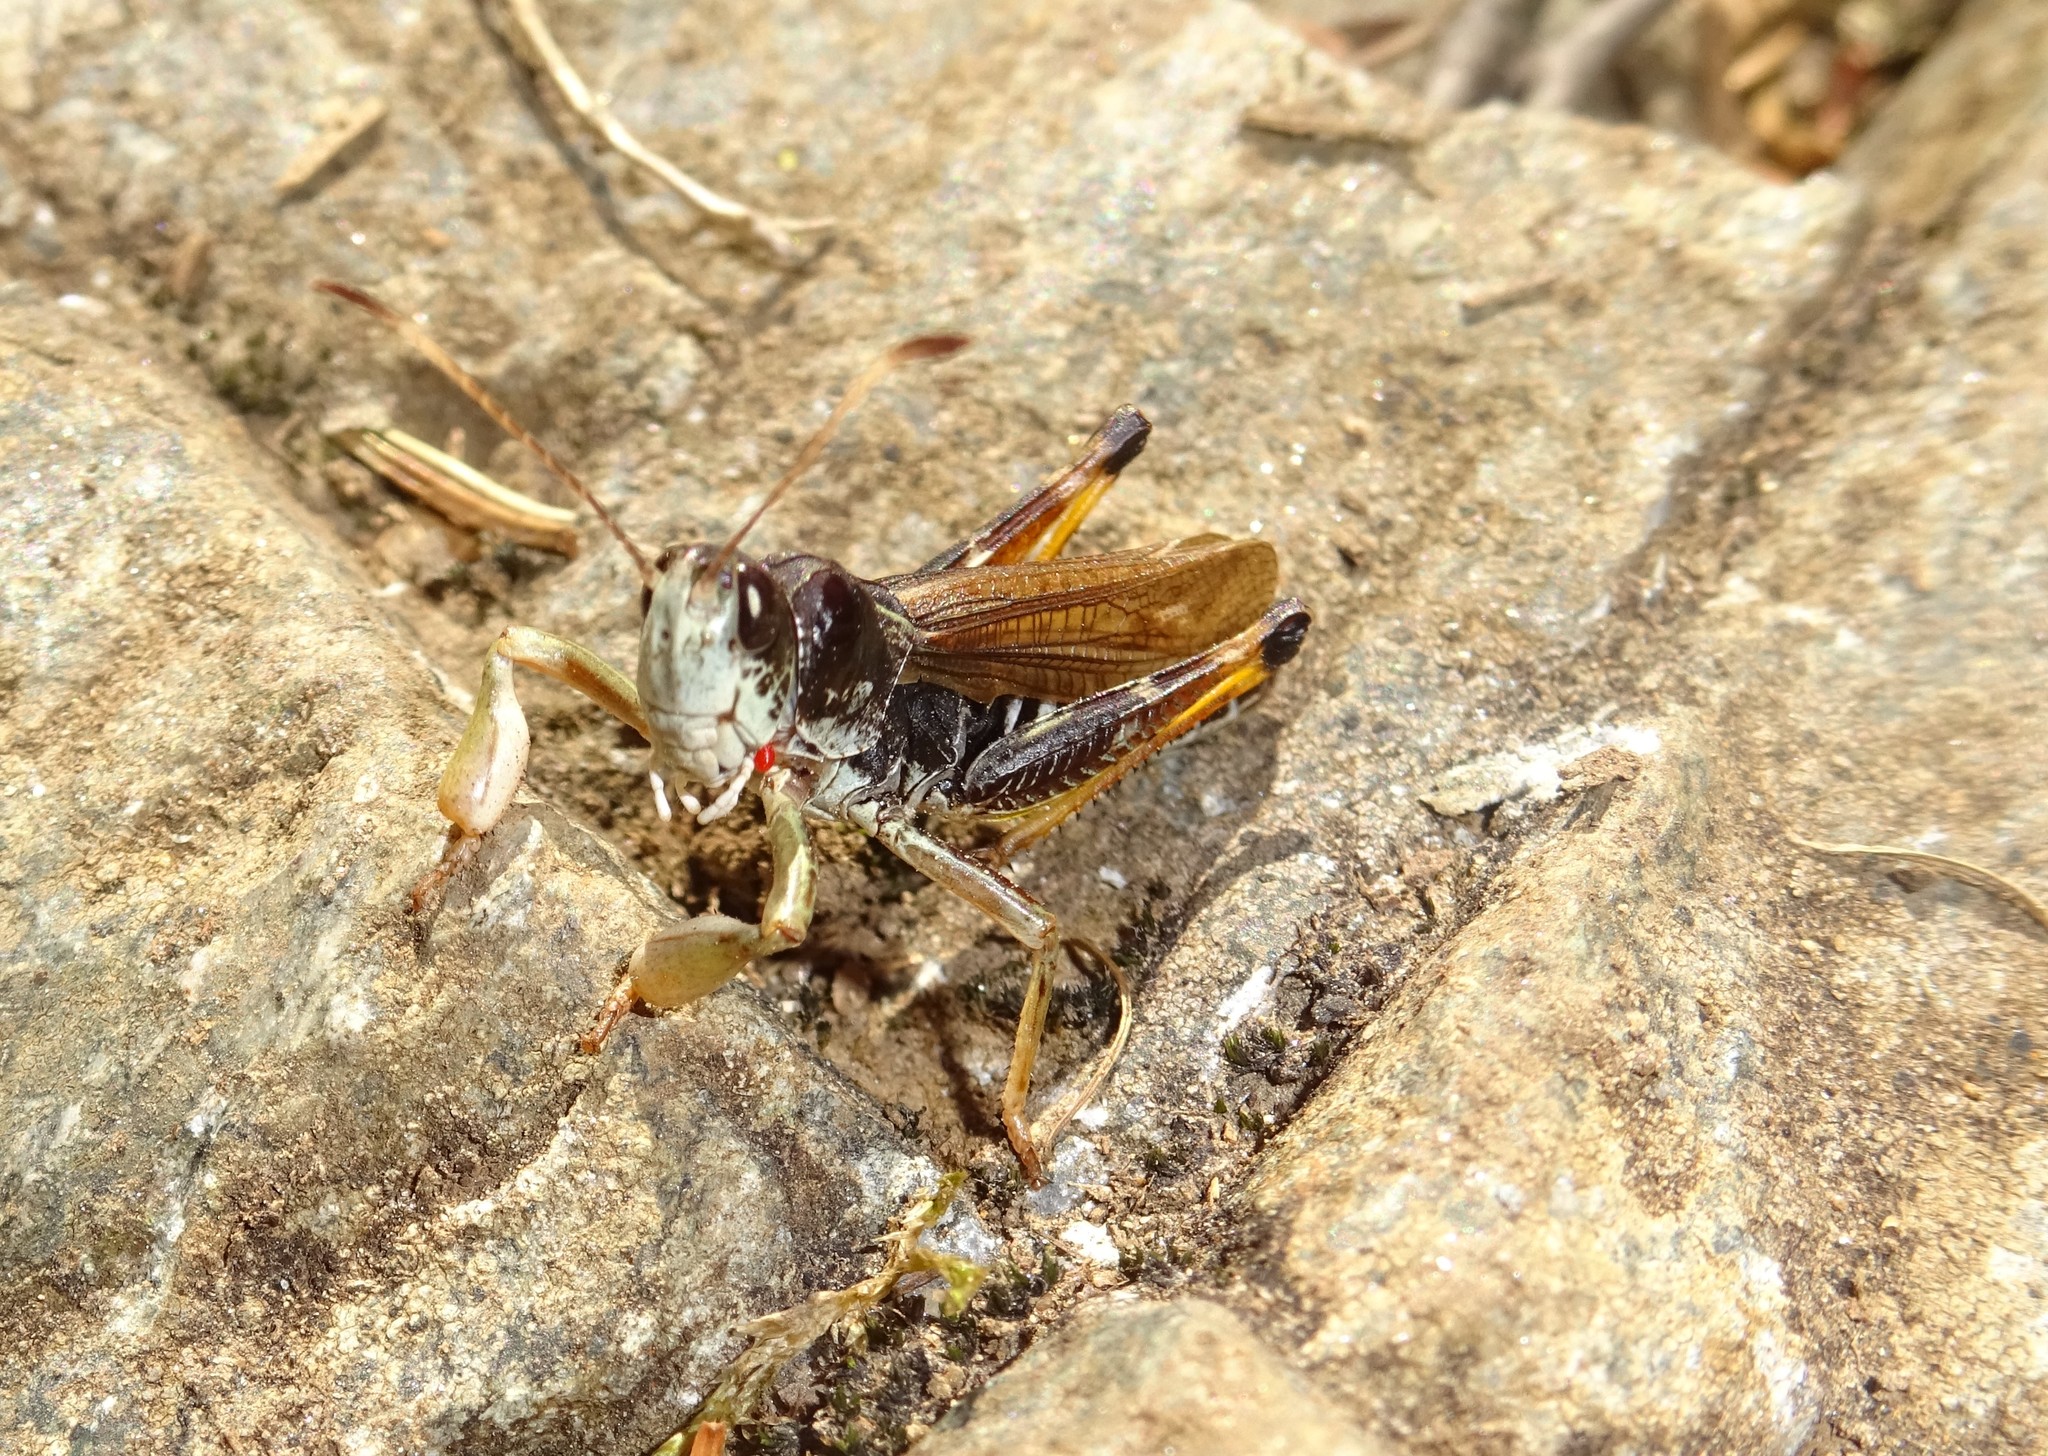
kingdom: Animalia
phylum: Arthropoda
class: Insecta
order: Orthoptera
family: Acrididae
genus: Gomphocerus
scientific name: Gomphocerus sibiricus
